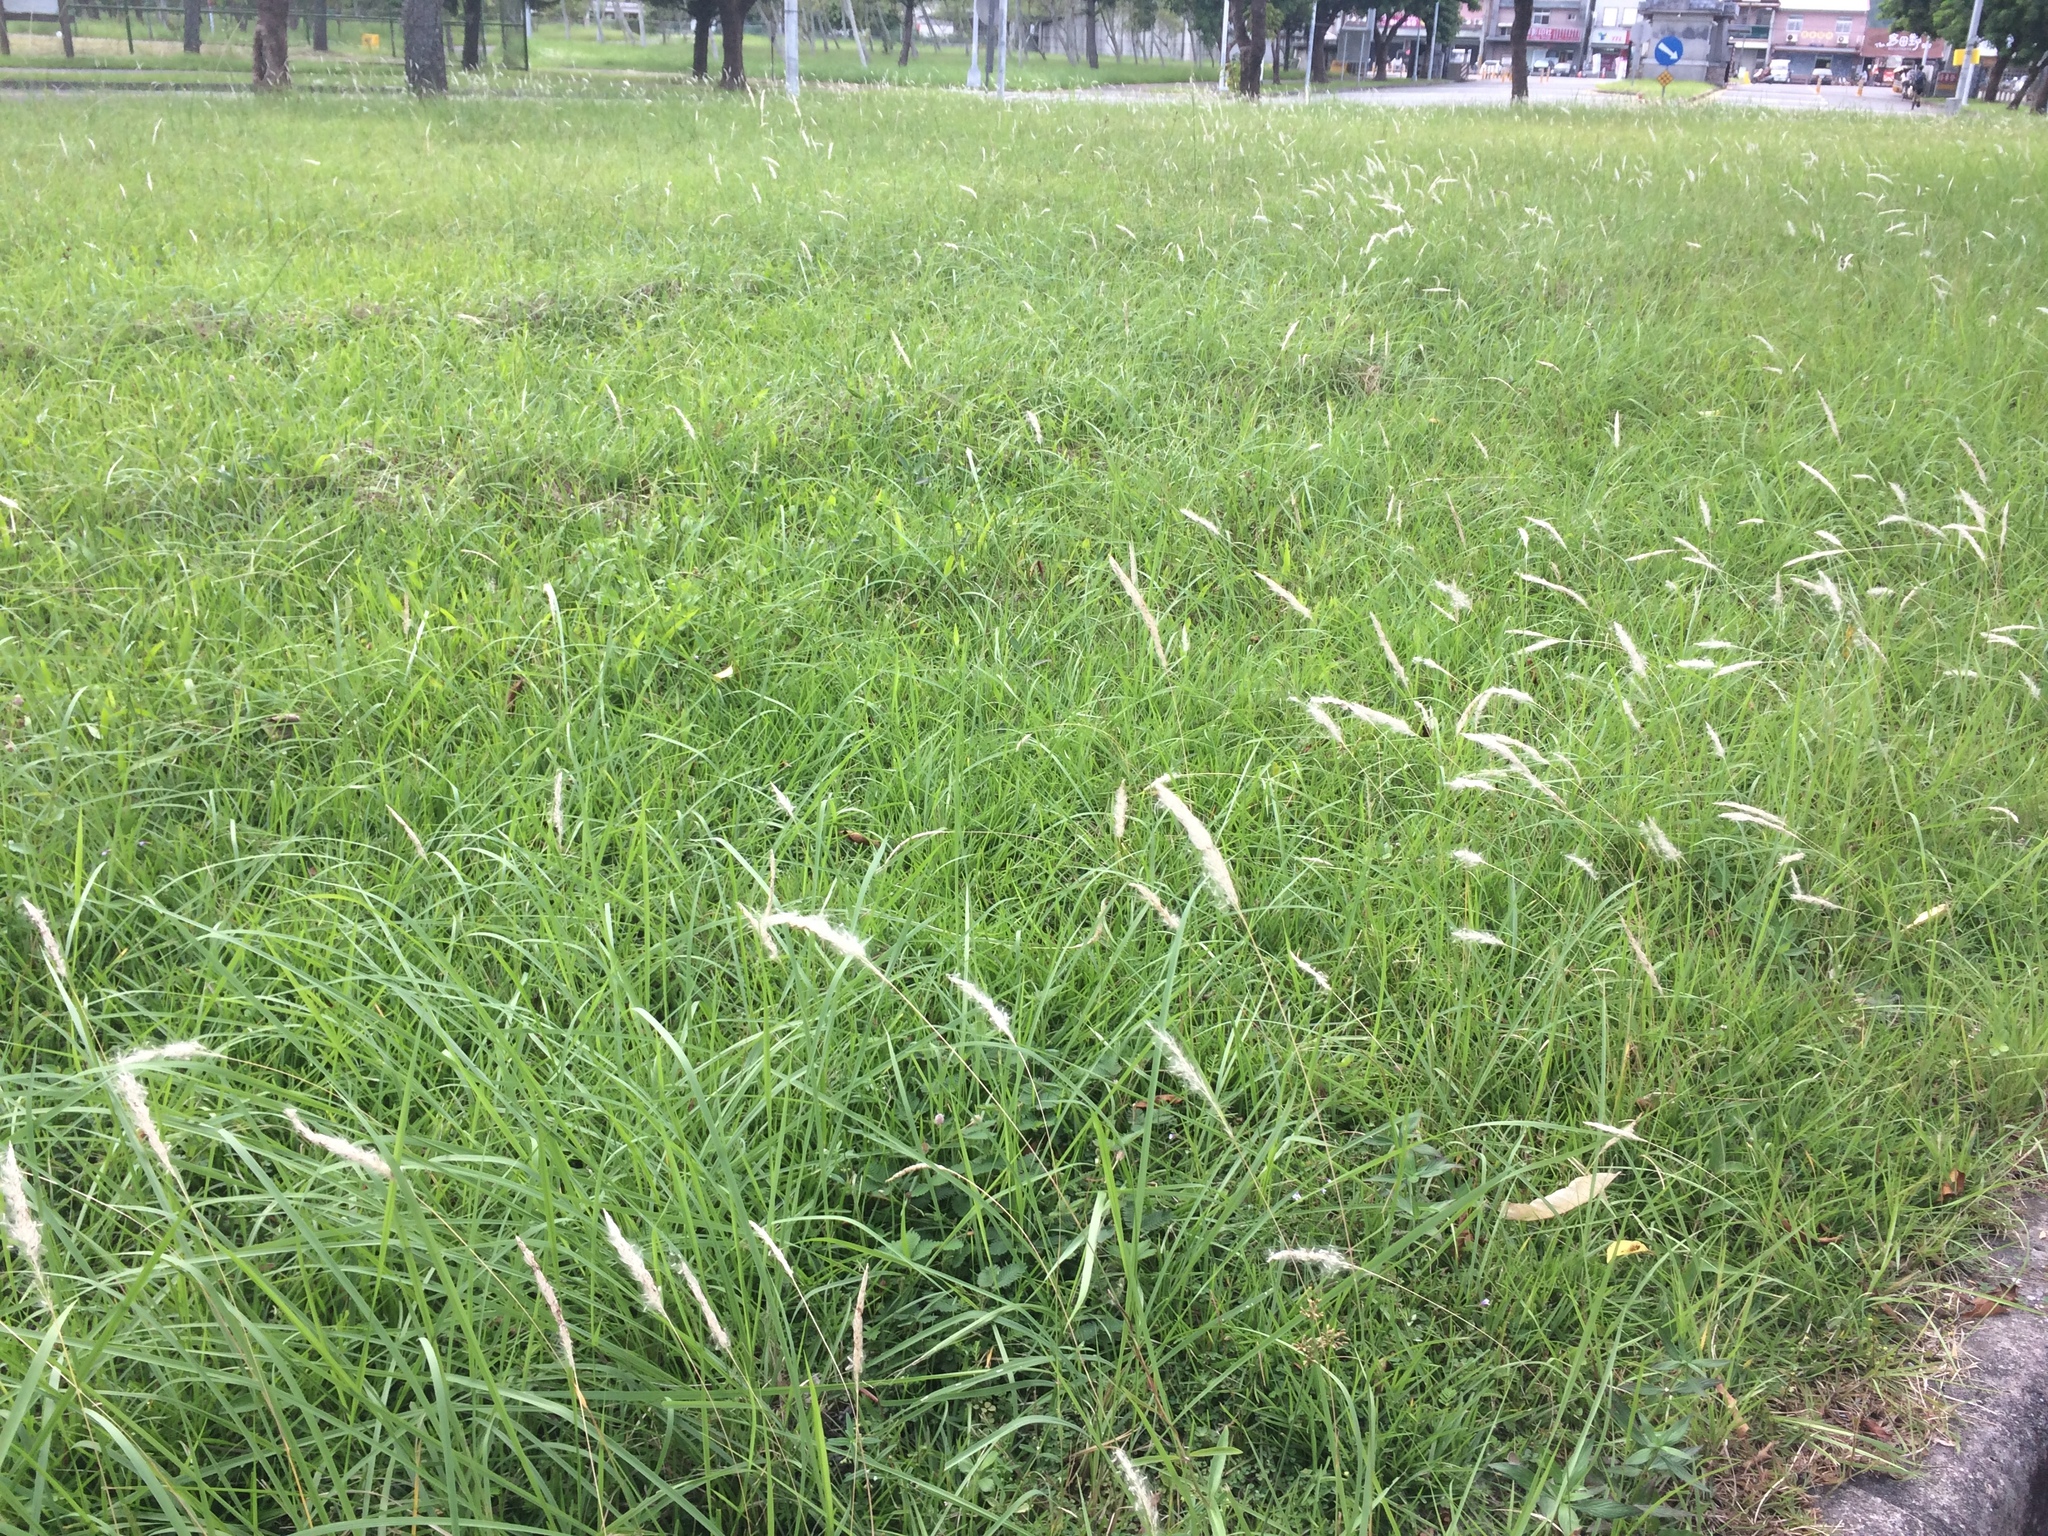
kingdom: Plantae
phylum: Tracheophyta
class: Liliopsida
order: Poales
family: Poaceae
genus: Imperata
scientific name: Imperata cylindrica
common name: Cogongrass
